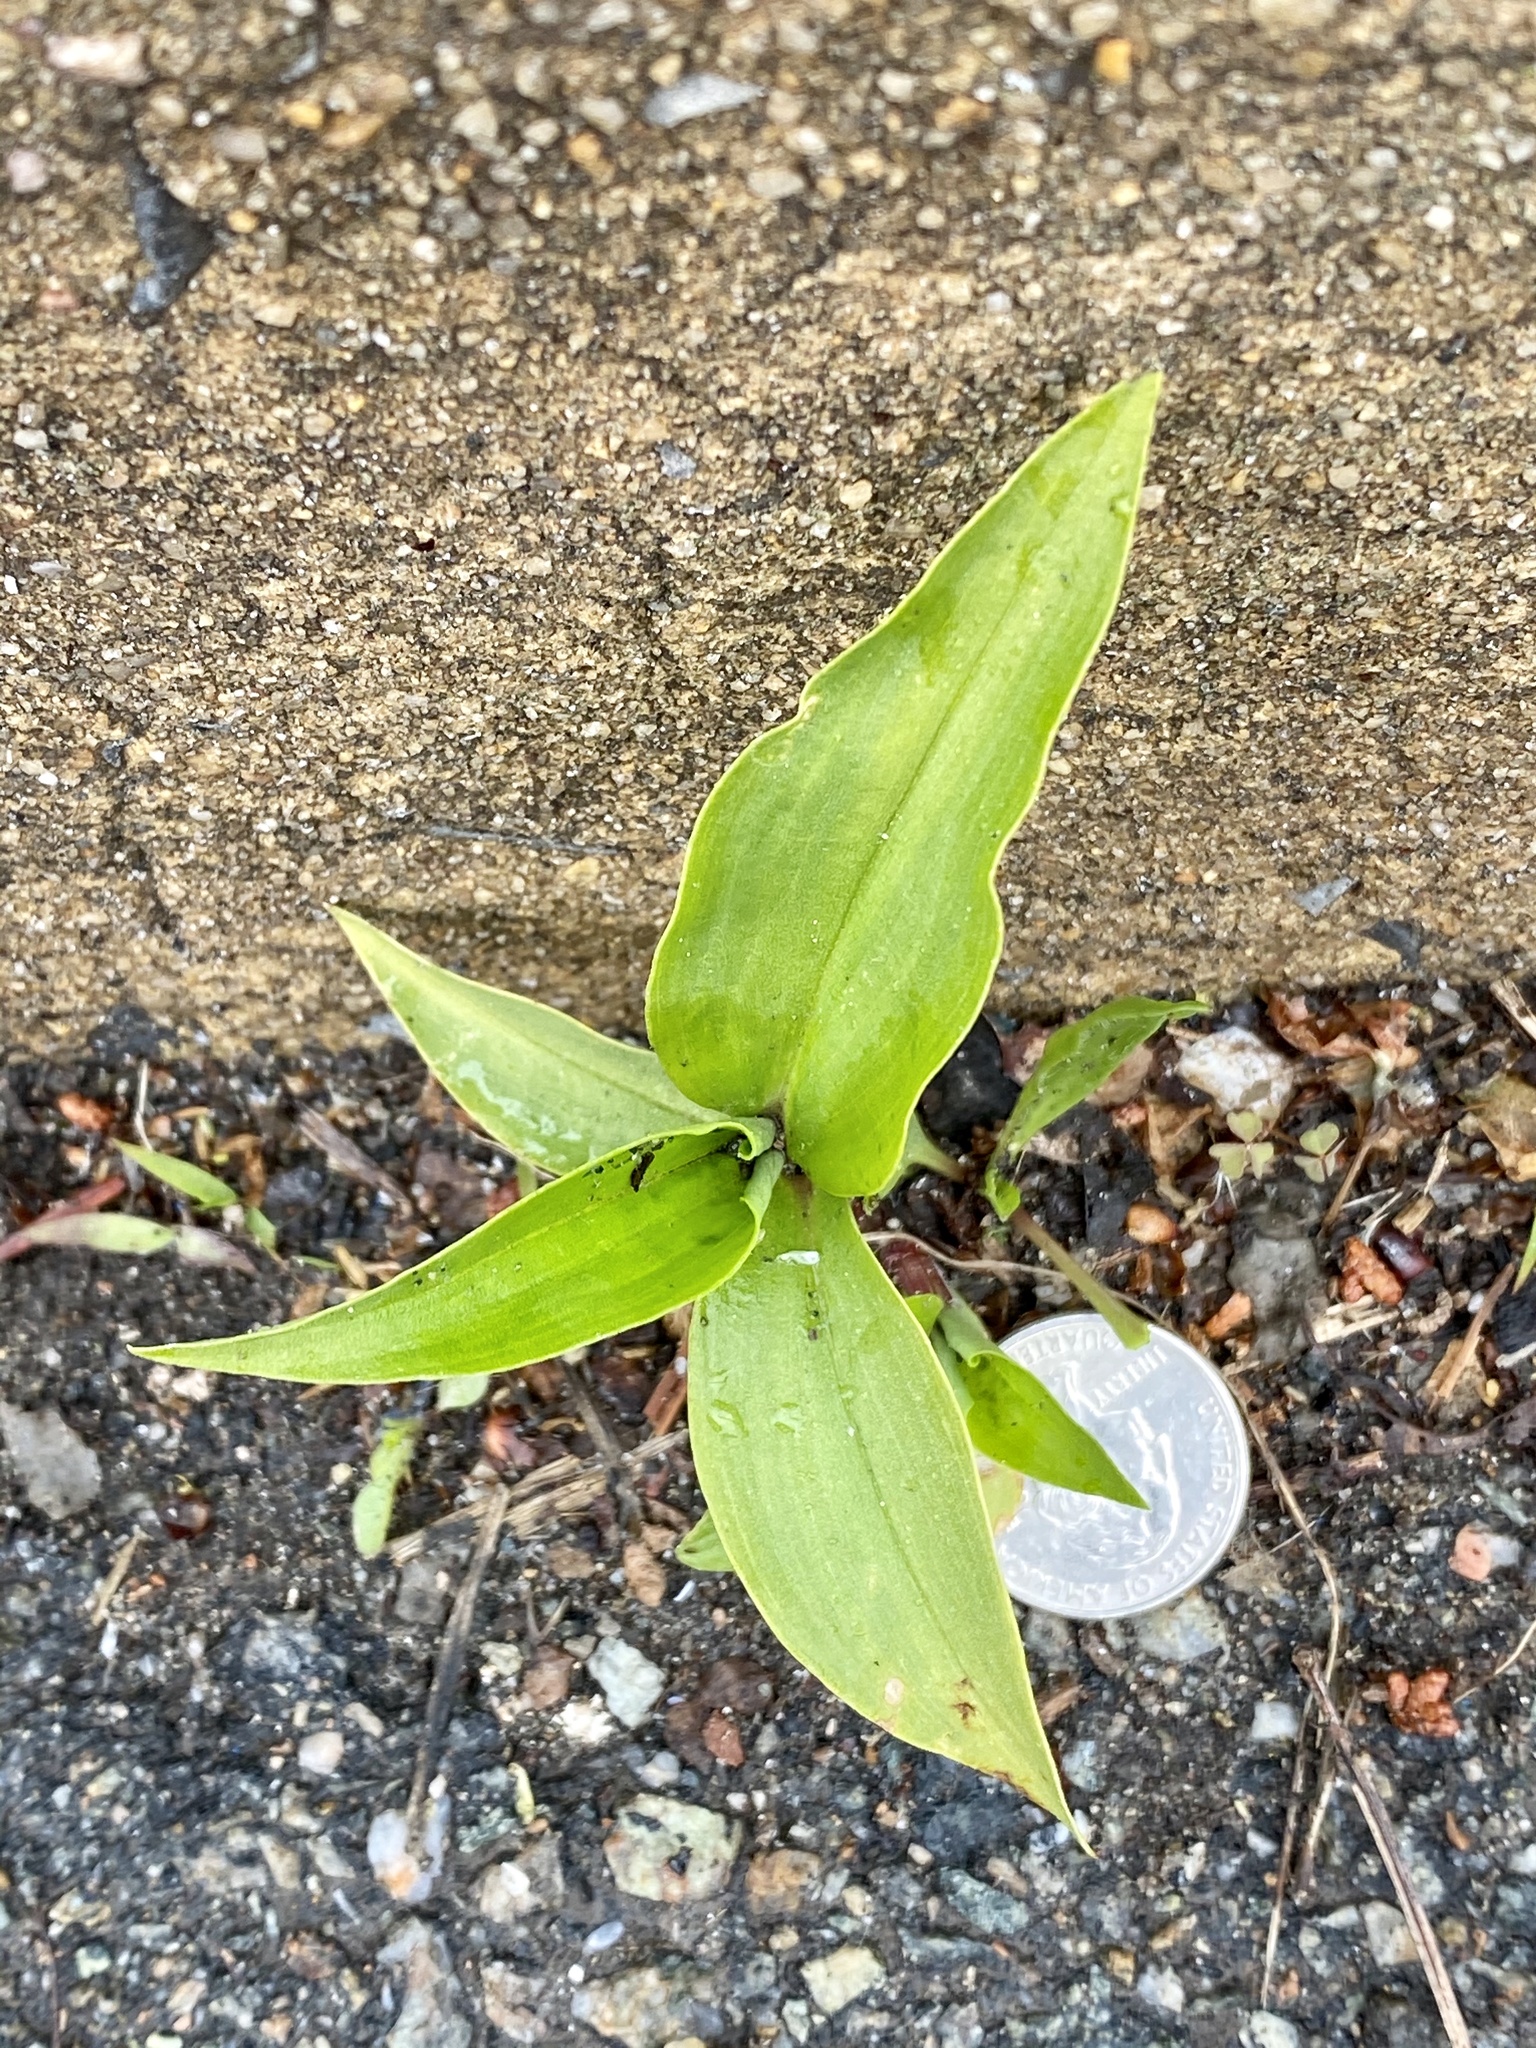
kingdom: Plantae
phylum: Tracheophyta
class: Liliopsida
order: Commelinales
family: Commelinaceae
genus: Commelina
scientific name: Commelina communis
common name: Asiatic dayflower
